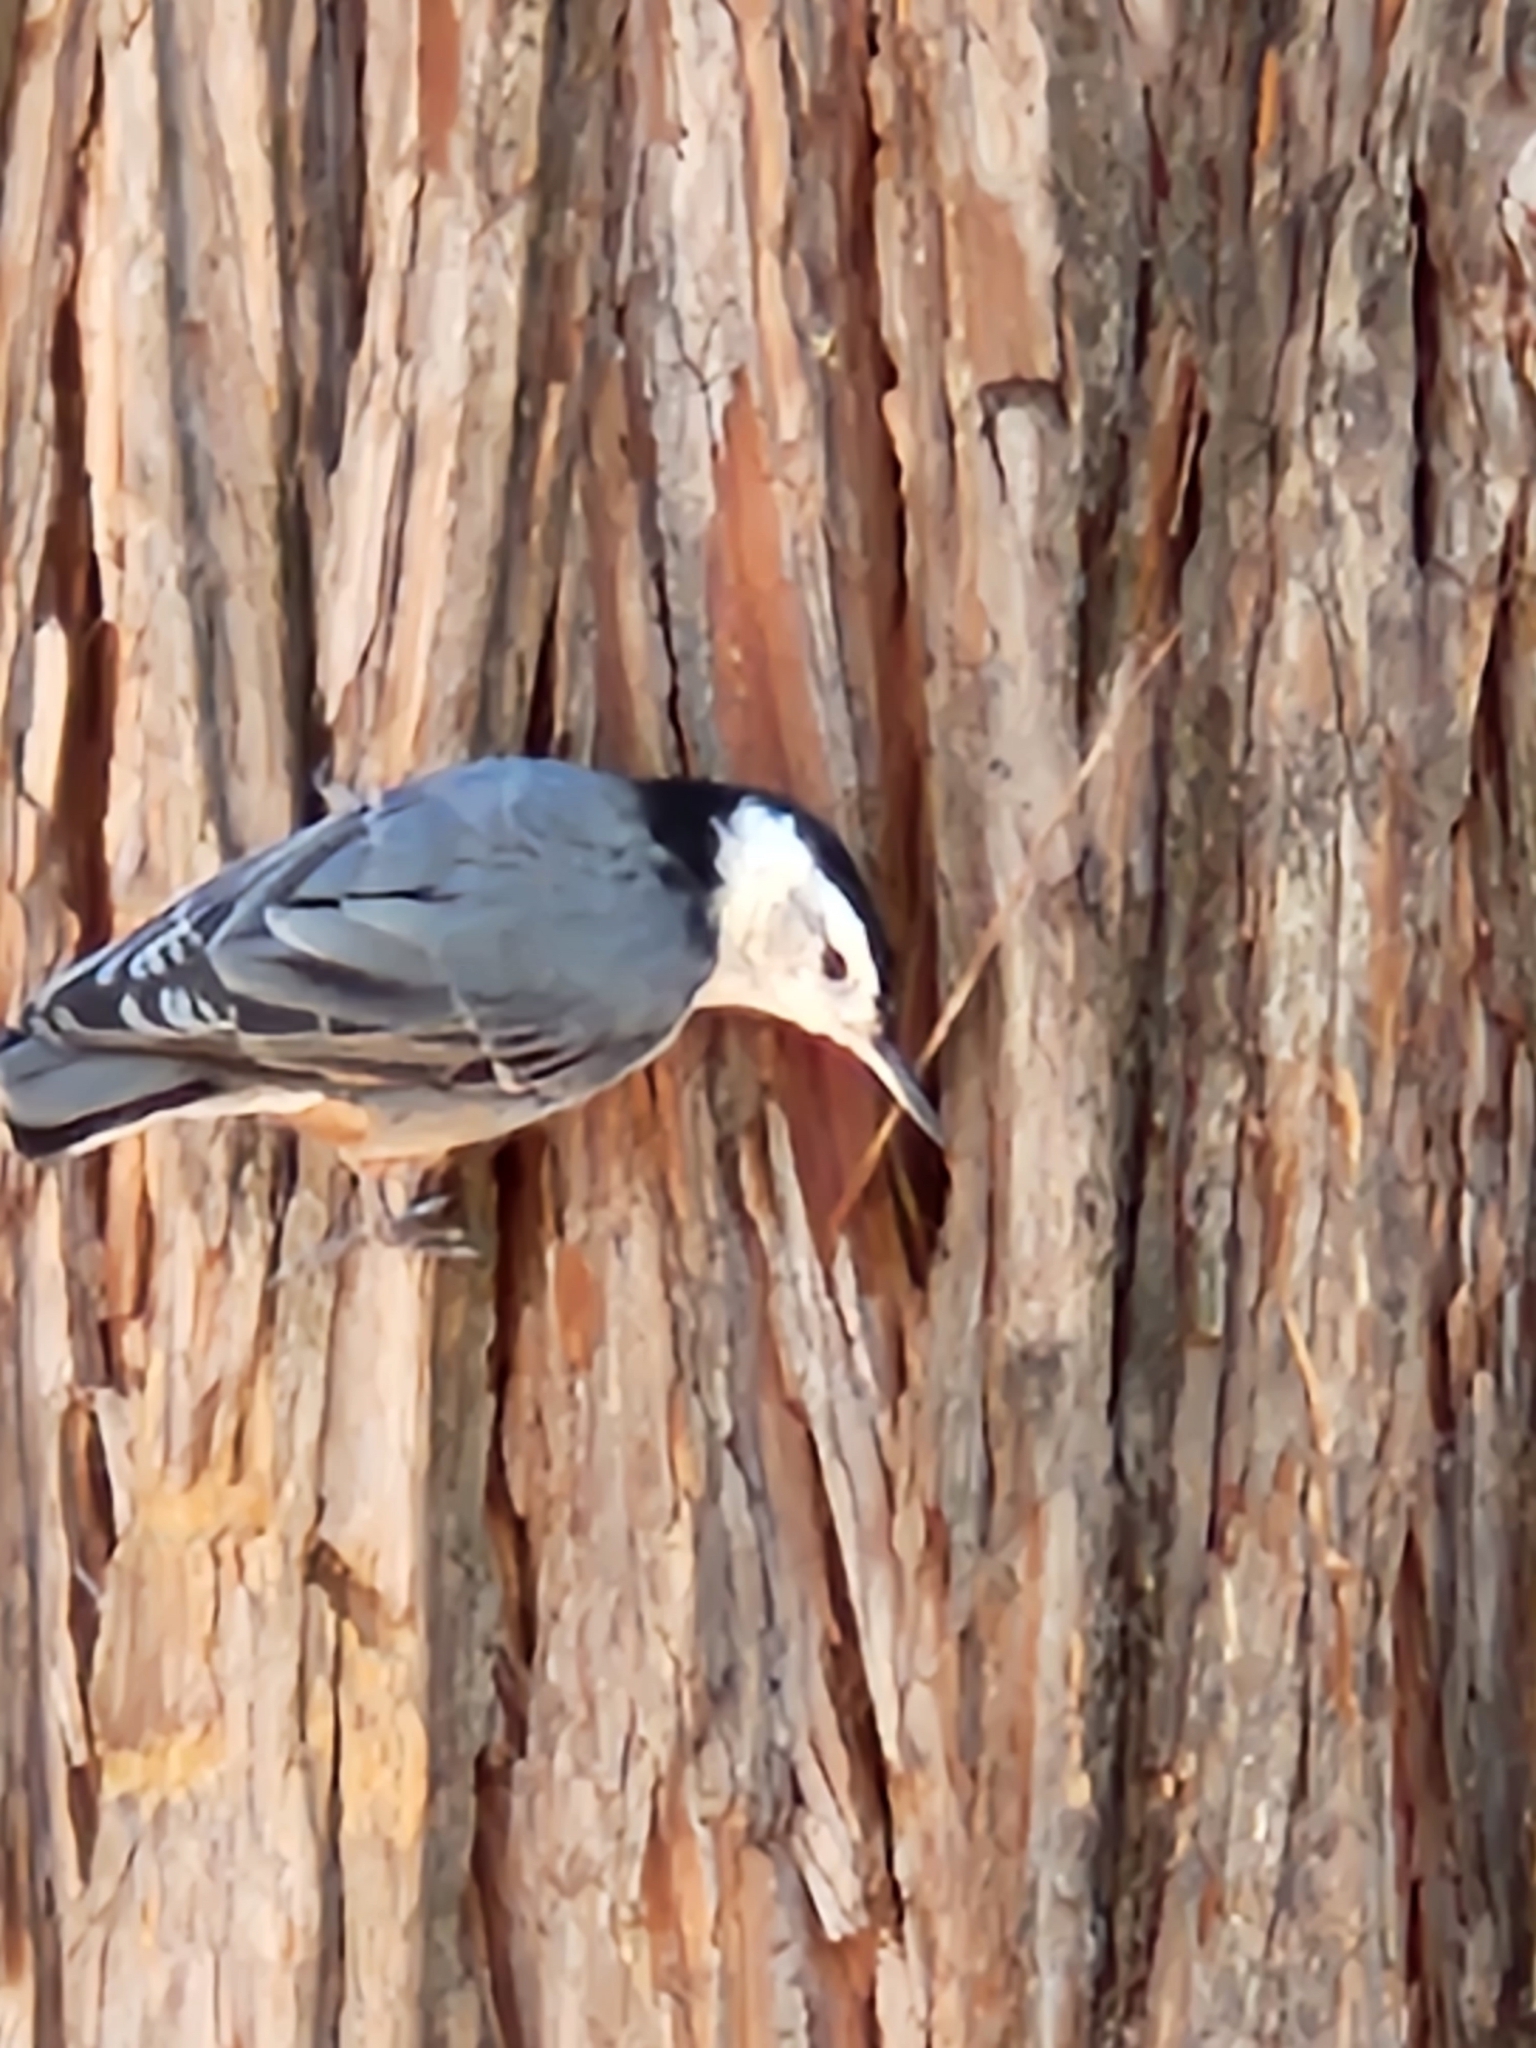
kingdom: Animalia
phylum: Chordata
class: Aves
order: Passeriformes
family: Sittidae
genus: Sitta
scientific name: Sitta carolinensis
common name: White-breasted nuthatch
